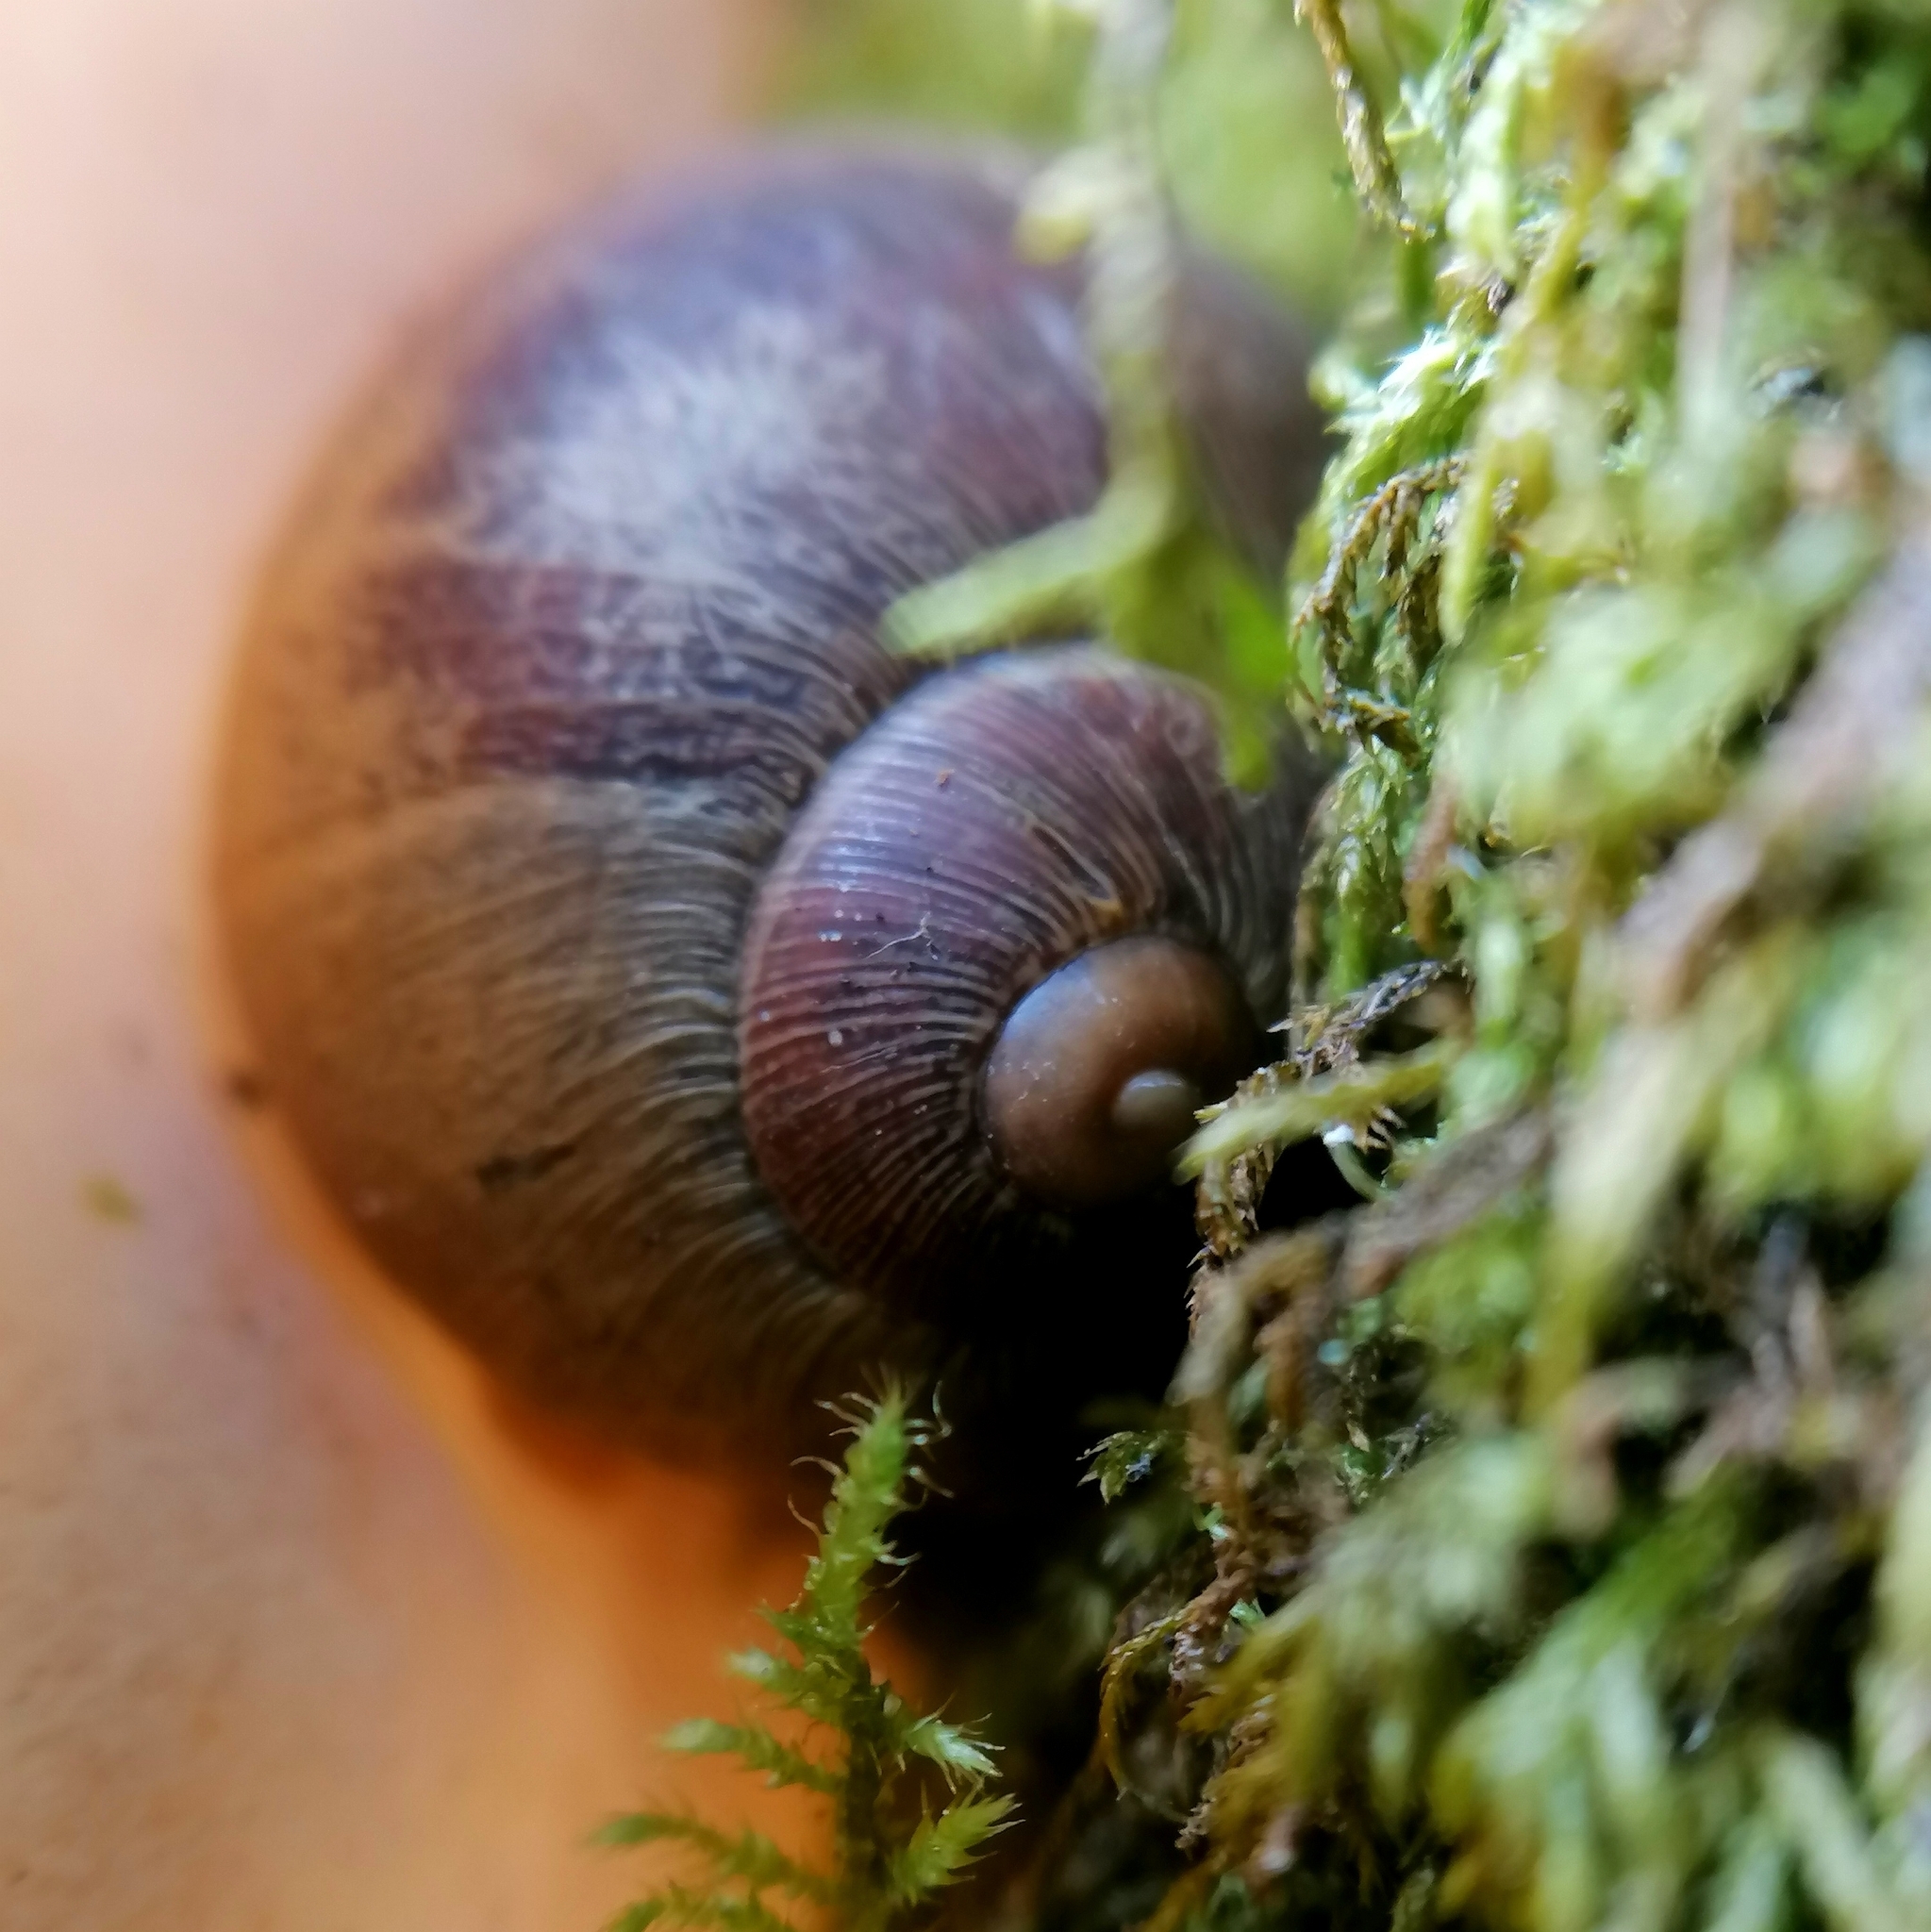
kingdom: Animalia
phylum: Mollusca
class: Gastropoda
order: Stylommatophora
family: Helicidae
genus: Cornu
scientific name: Cornu aspersum
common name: Brown garden snail
